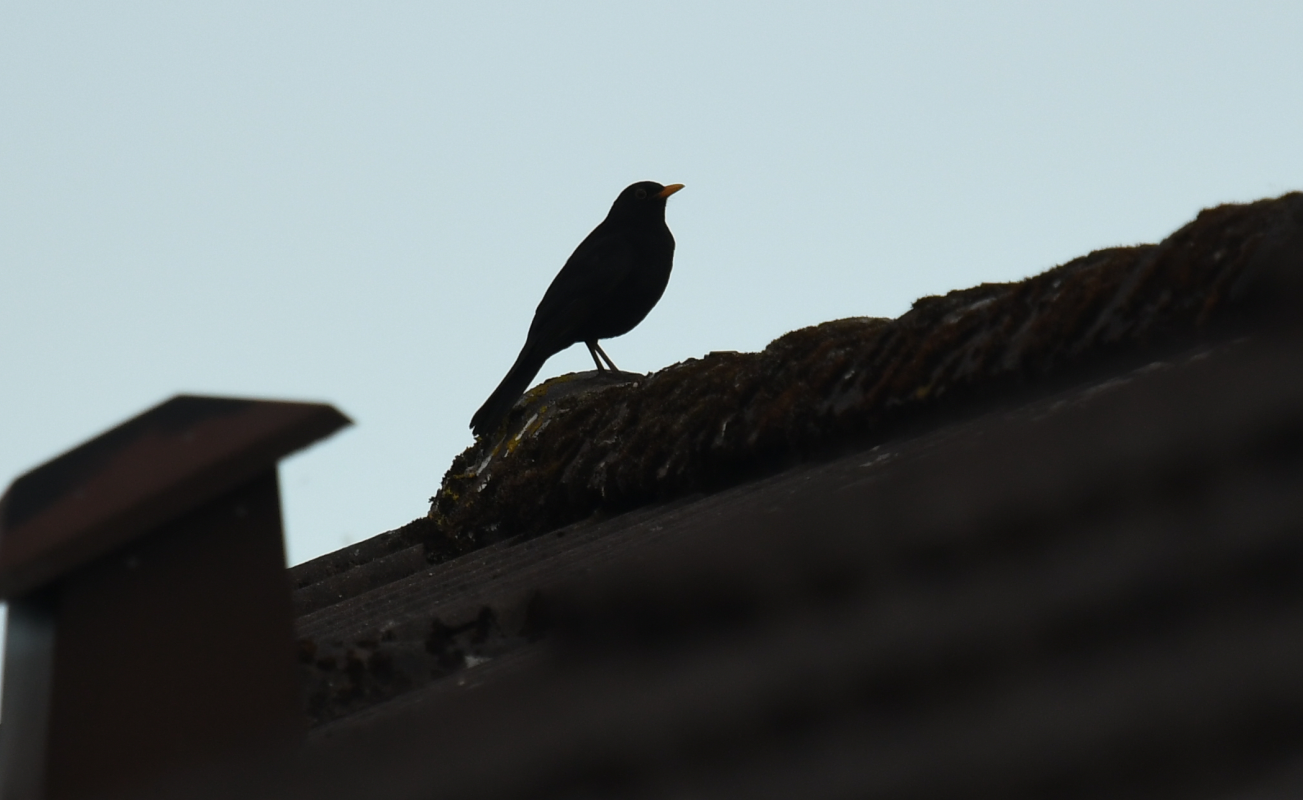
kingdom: Animalia
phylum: Chordata
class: Aves
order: Passeriformes
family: Turdidae
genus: Turdus
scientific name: Turdus merula
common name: Common blackbird
